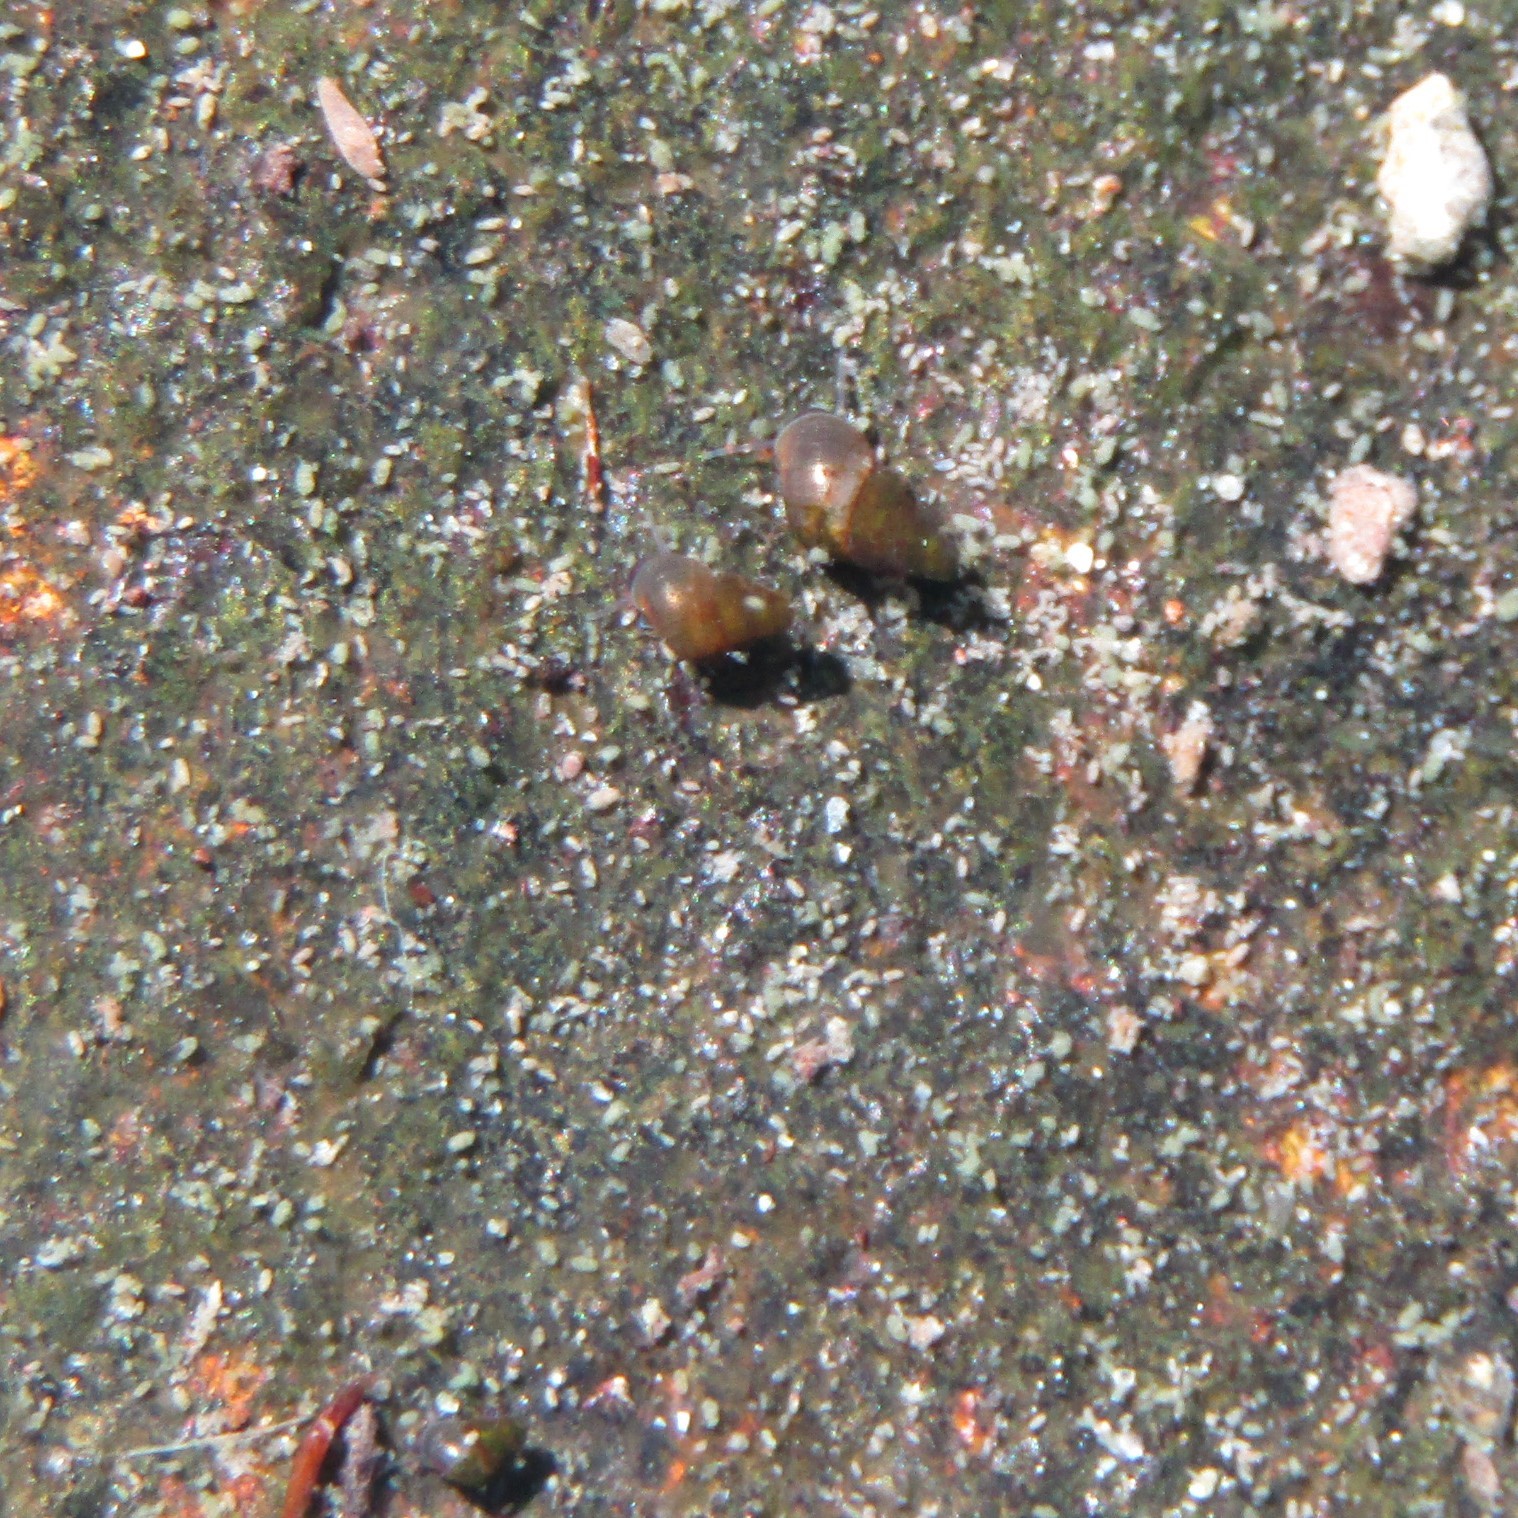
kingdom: Animalia
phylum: Mollusca
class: Gastropoda
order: Littorinimorpha
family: Tateidae
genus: Potamopyrgus
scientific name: Potamopyrgus antipodarum
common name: Jenkins' spire snail
